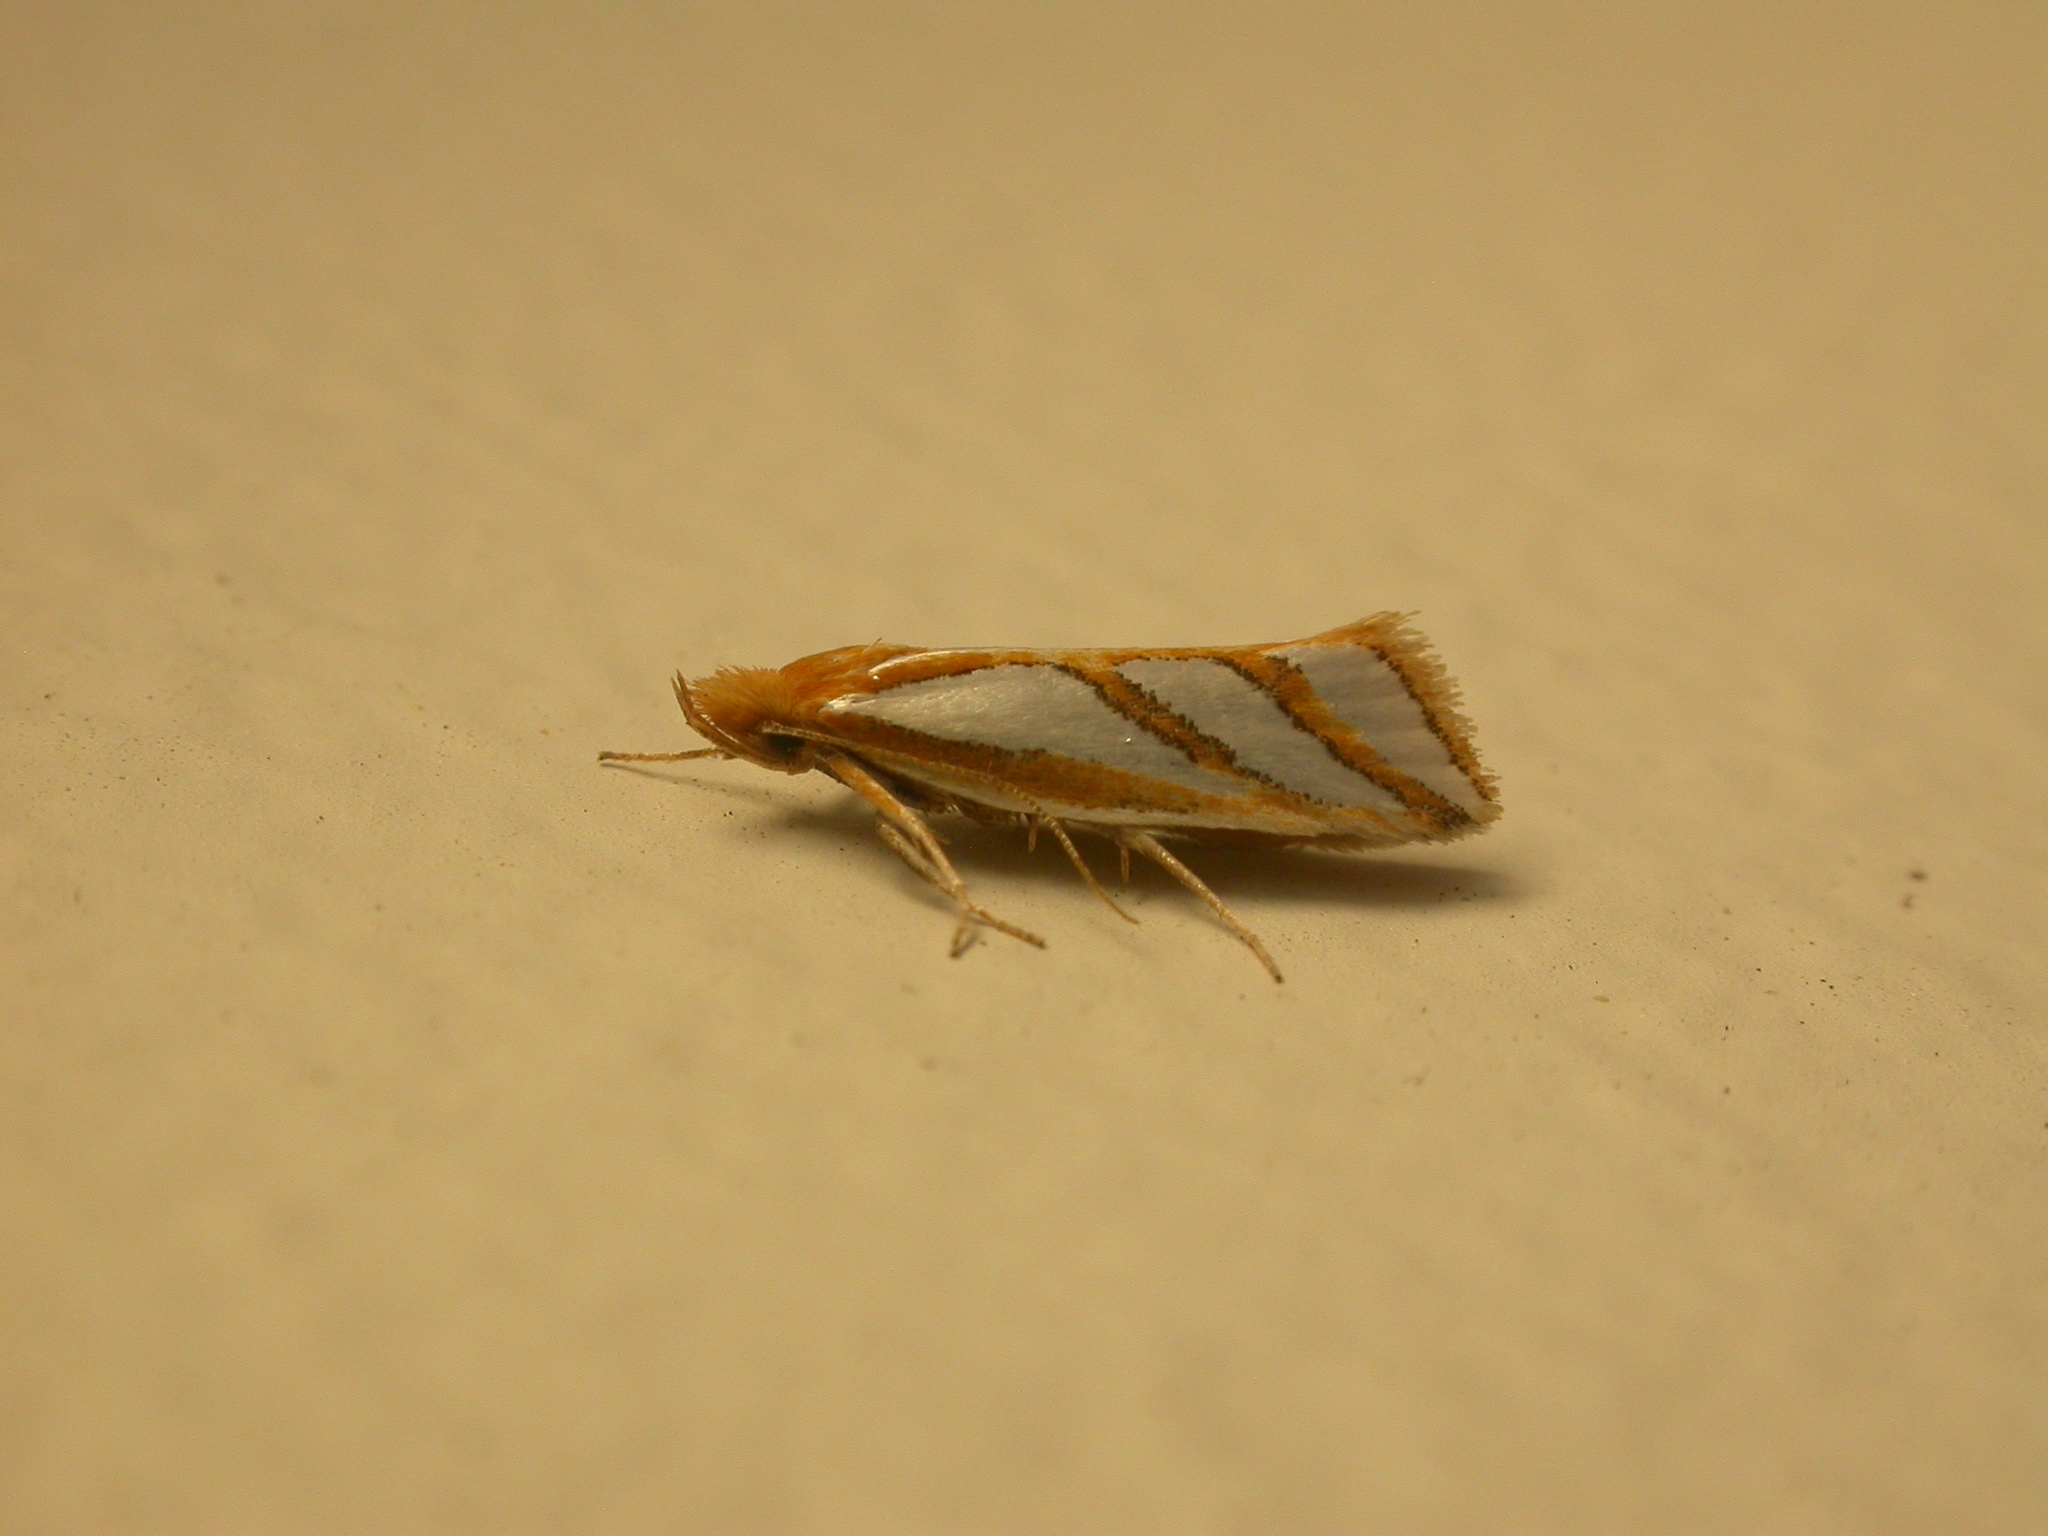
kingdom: Animalia
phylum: Arthropoda
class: Insecta
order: Lepidoptera
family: Depressariidae
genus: Thudaca
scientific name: Thudaca mimodora
